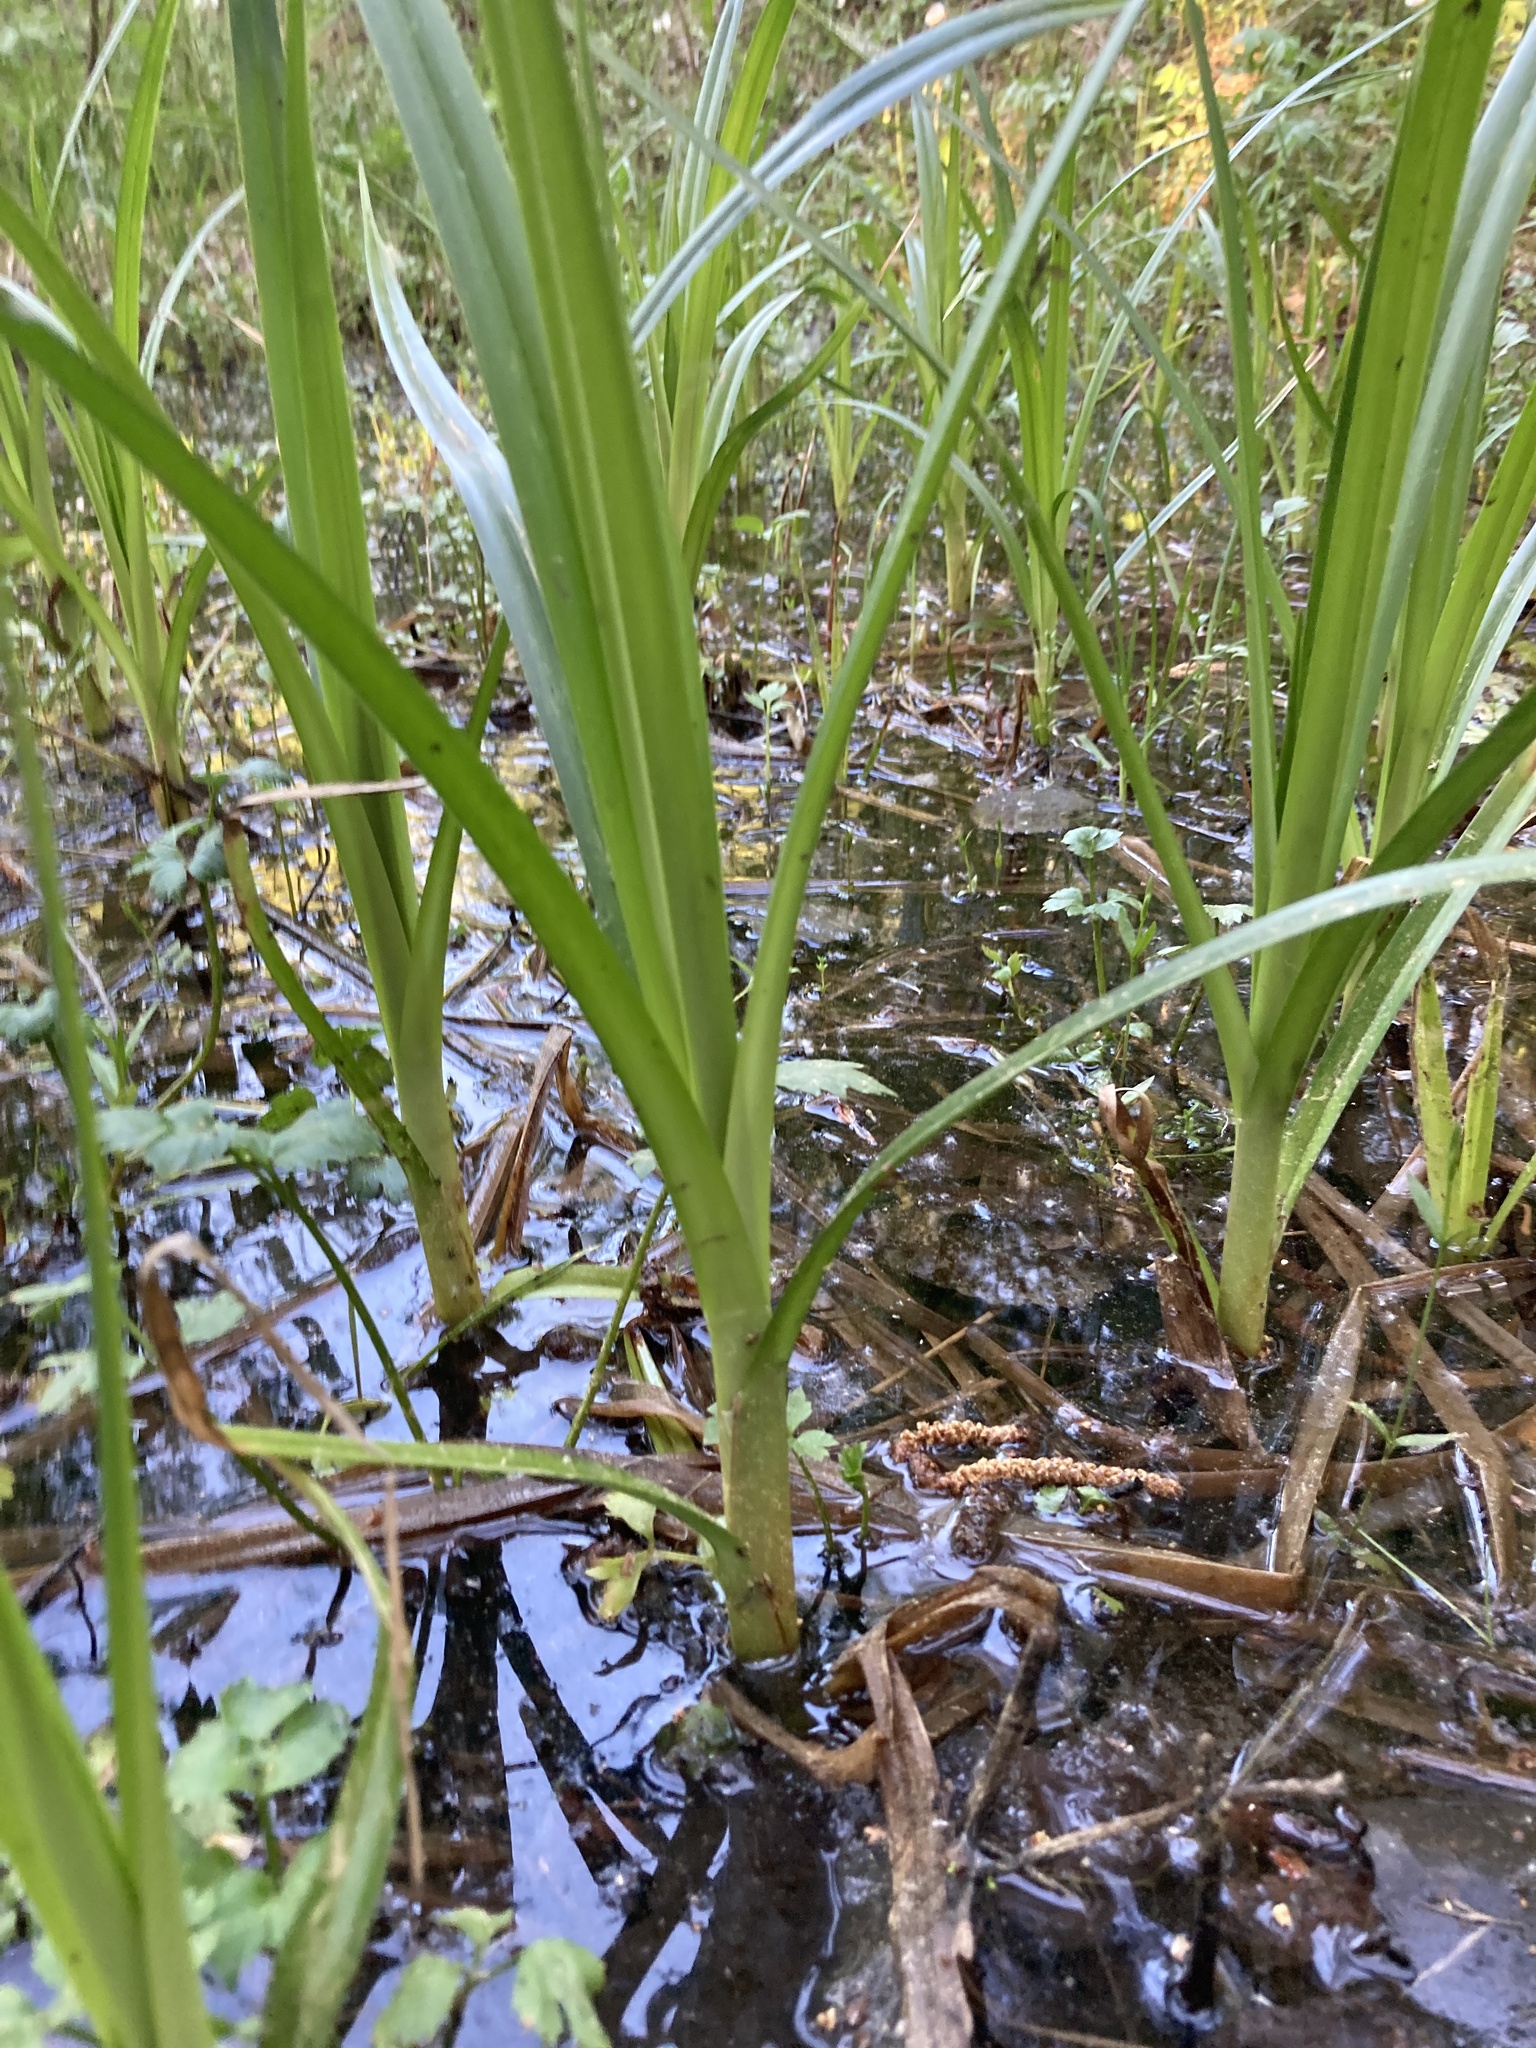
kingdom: Plantae
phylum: Tracheophyta
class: Liliopsida
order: Poales
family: Cyperaceae
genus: Scirpus
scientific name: Scirpus sylvaticus
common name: Wood club-rush
